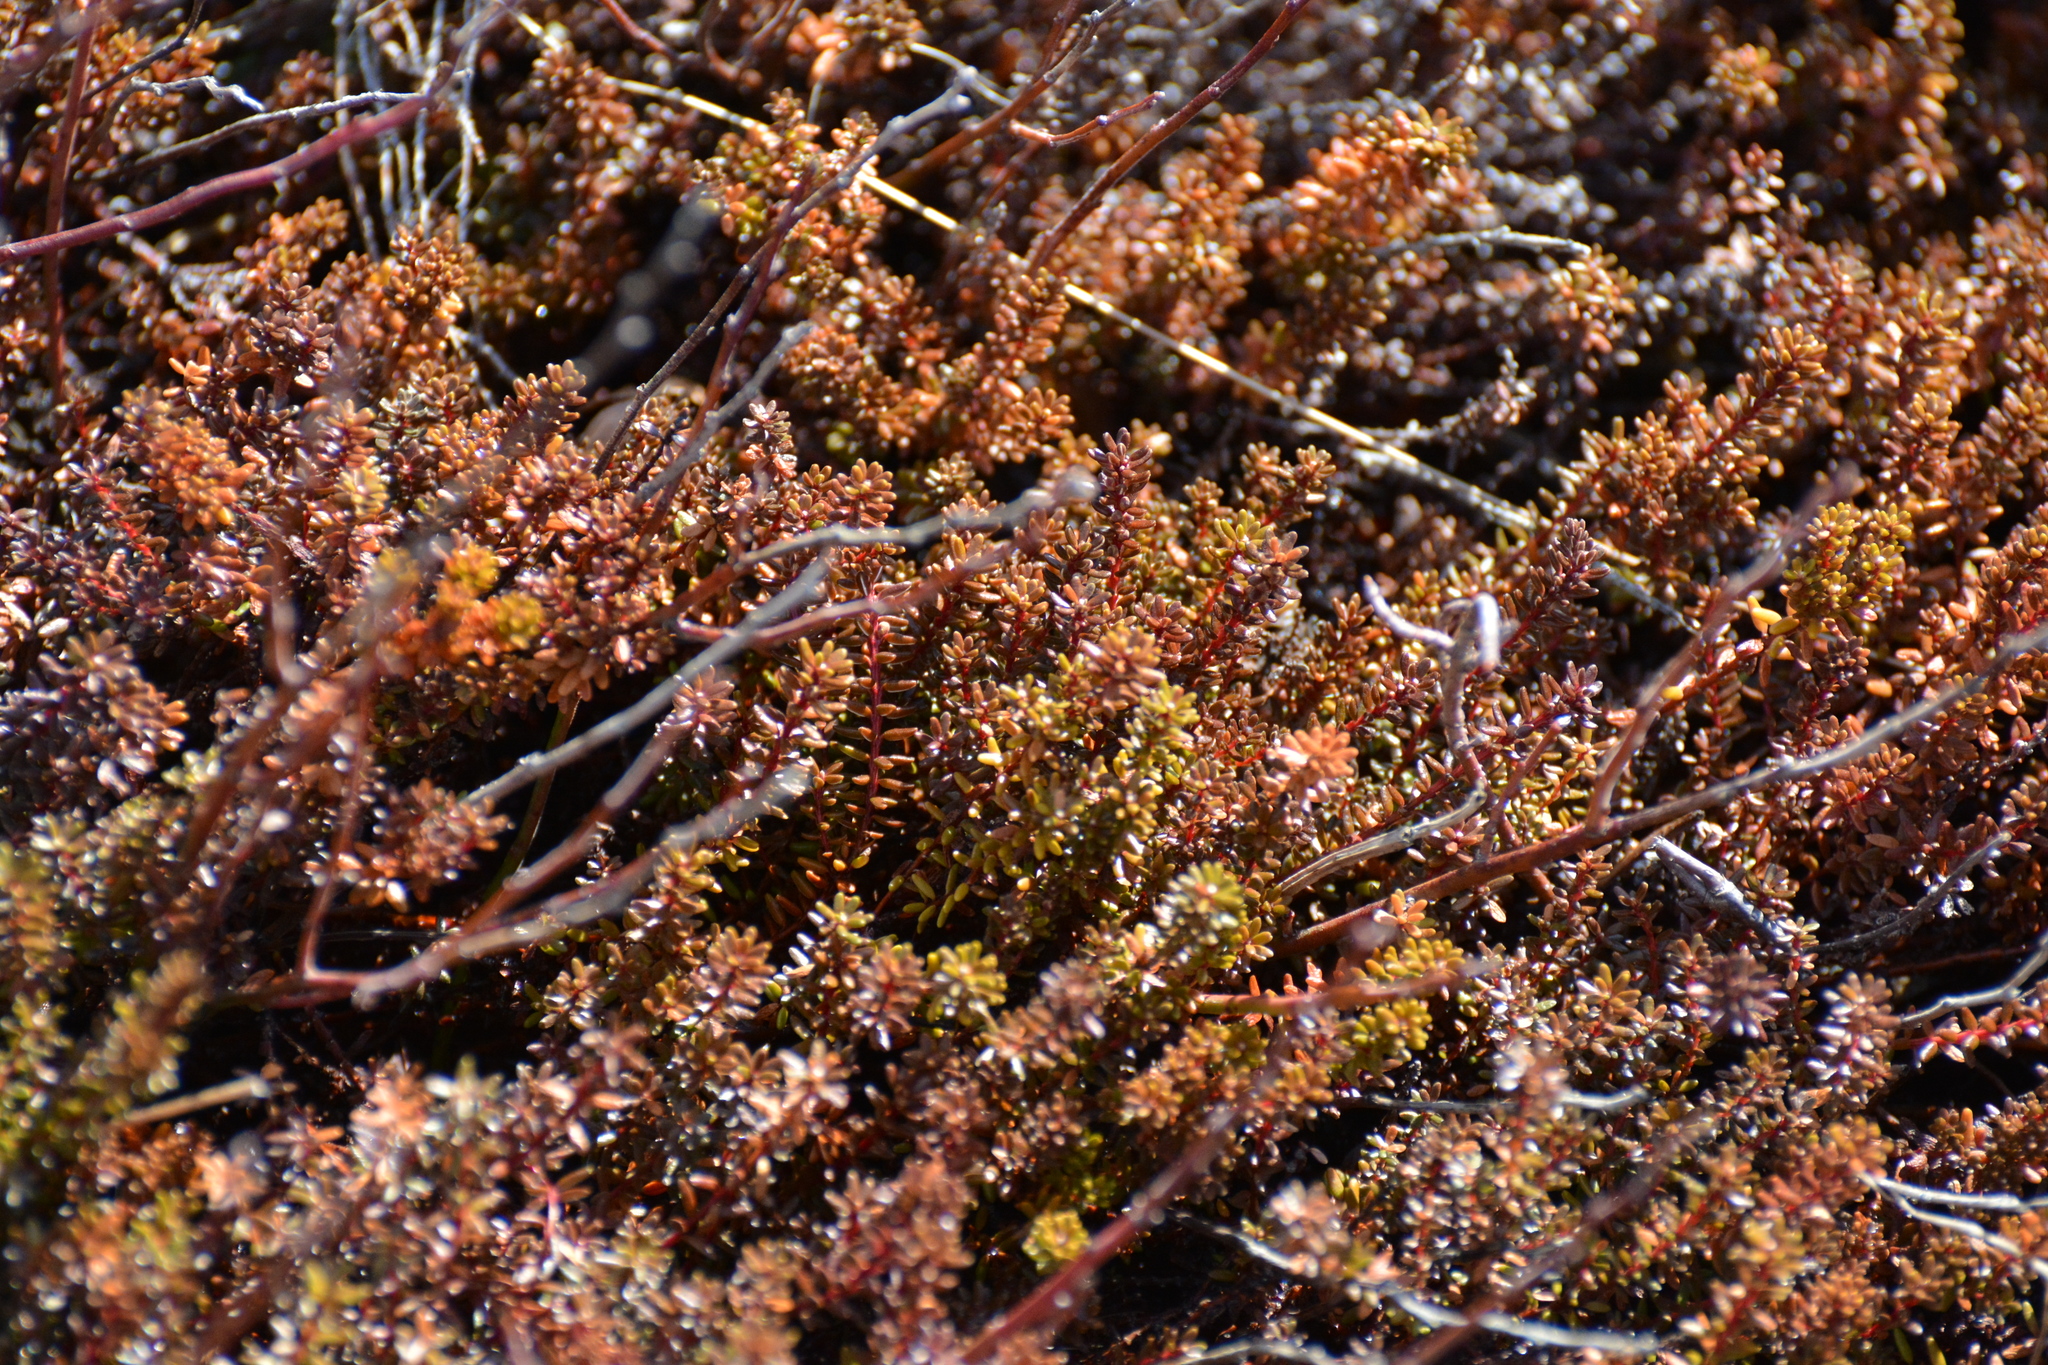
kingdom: Plantae
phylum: Tracheophyta
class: Magnoliopsida
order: Ericales
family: Ericaceae
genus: Empetrum
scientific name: Empetrum nigrum
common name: Black crowberry
